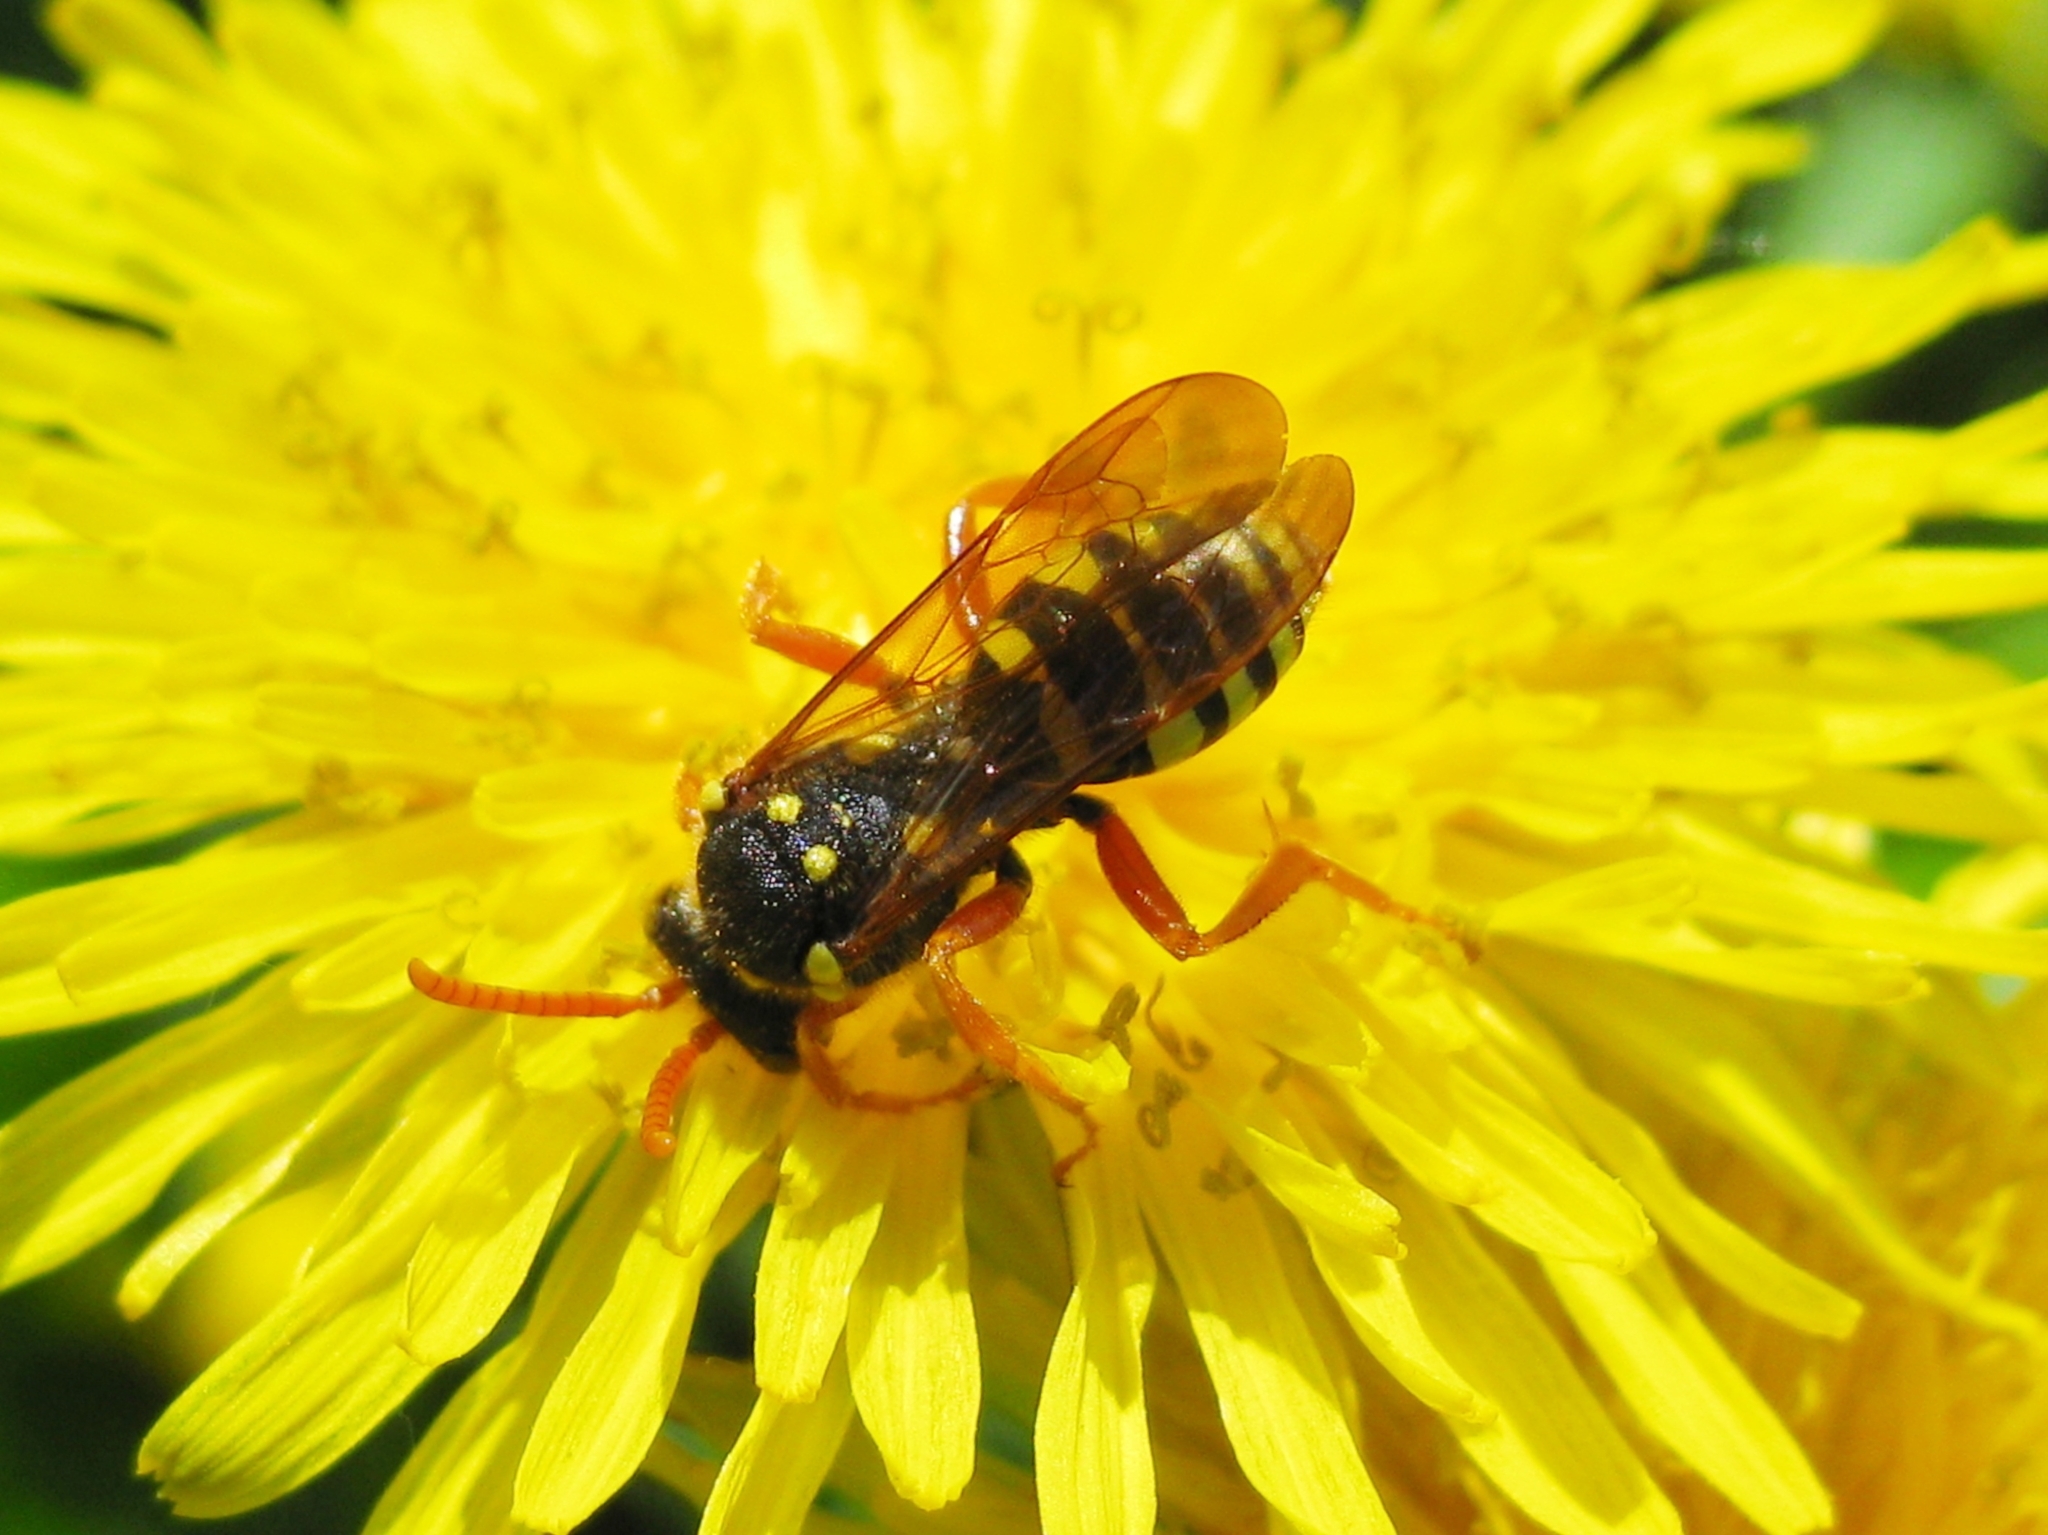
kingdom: Animalia
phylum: Arthropoda
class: Insecta
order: Hymenoptera
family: Apidae
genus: Nomada
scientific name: Nomada
